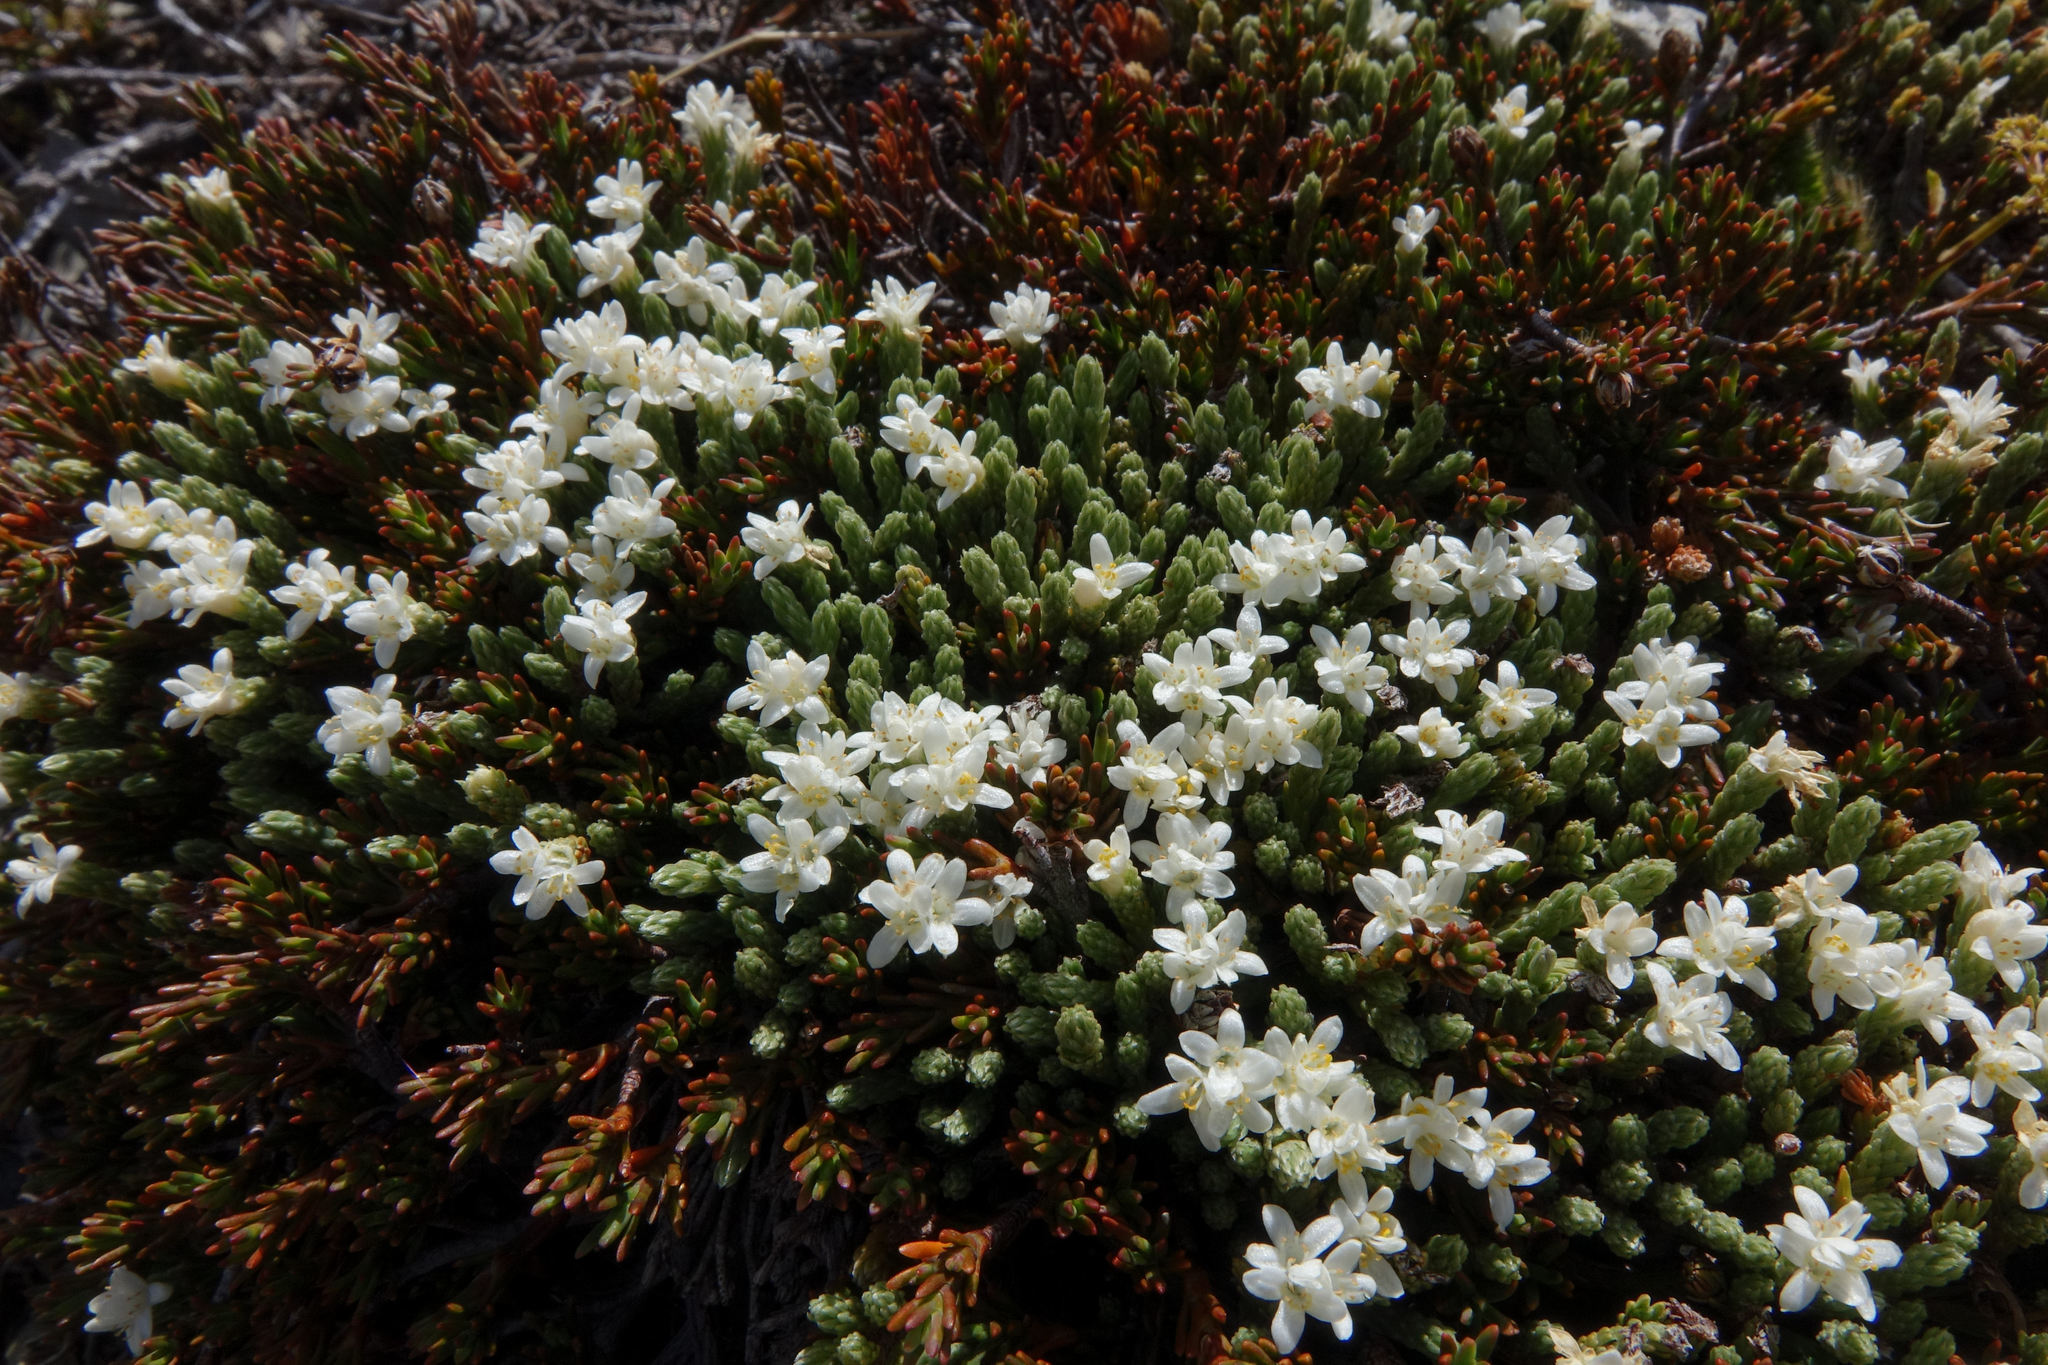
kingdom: Plantae
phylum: Tracheophyta
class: Magnoliopsida
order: Malvales
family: Thymelaeaceae
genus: Kelleria
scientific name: Kelleria villosa
